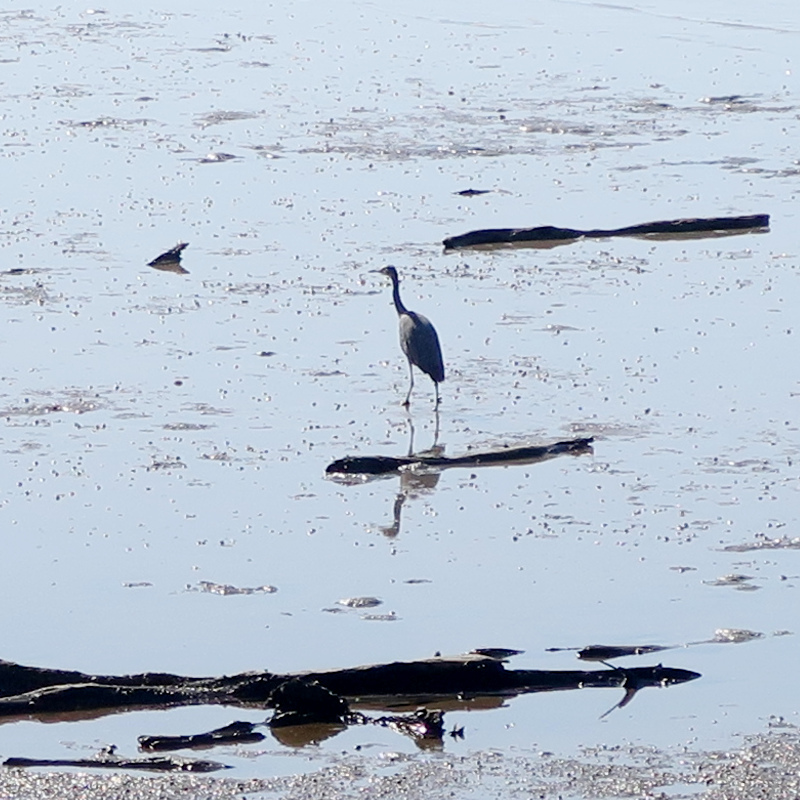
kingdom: Animalia
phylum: Chordata
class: Aves
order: Pelecaniformes
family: Ardeidae
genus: Egretta
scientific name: Egretta novaehollandiae
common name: White-faced heron
